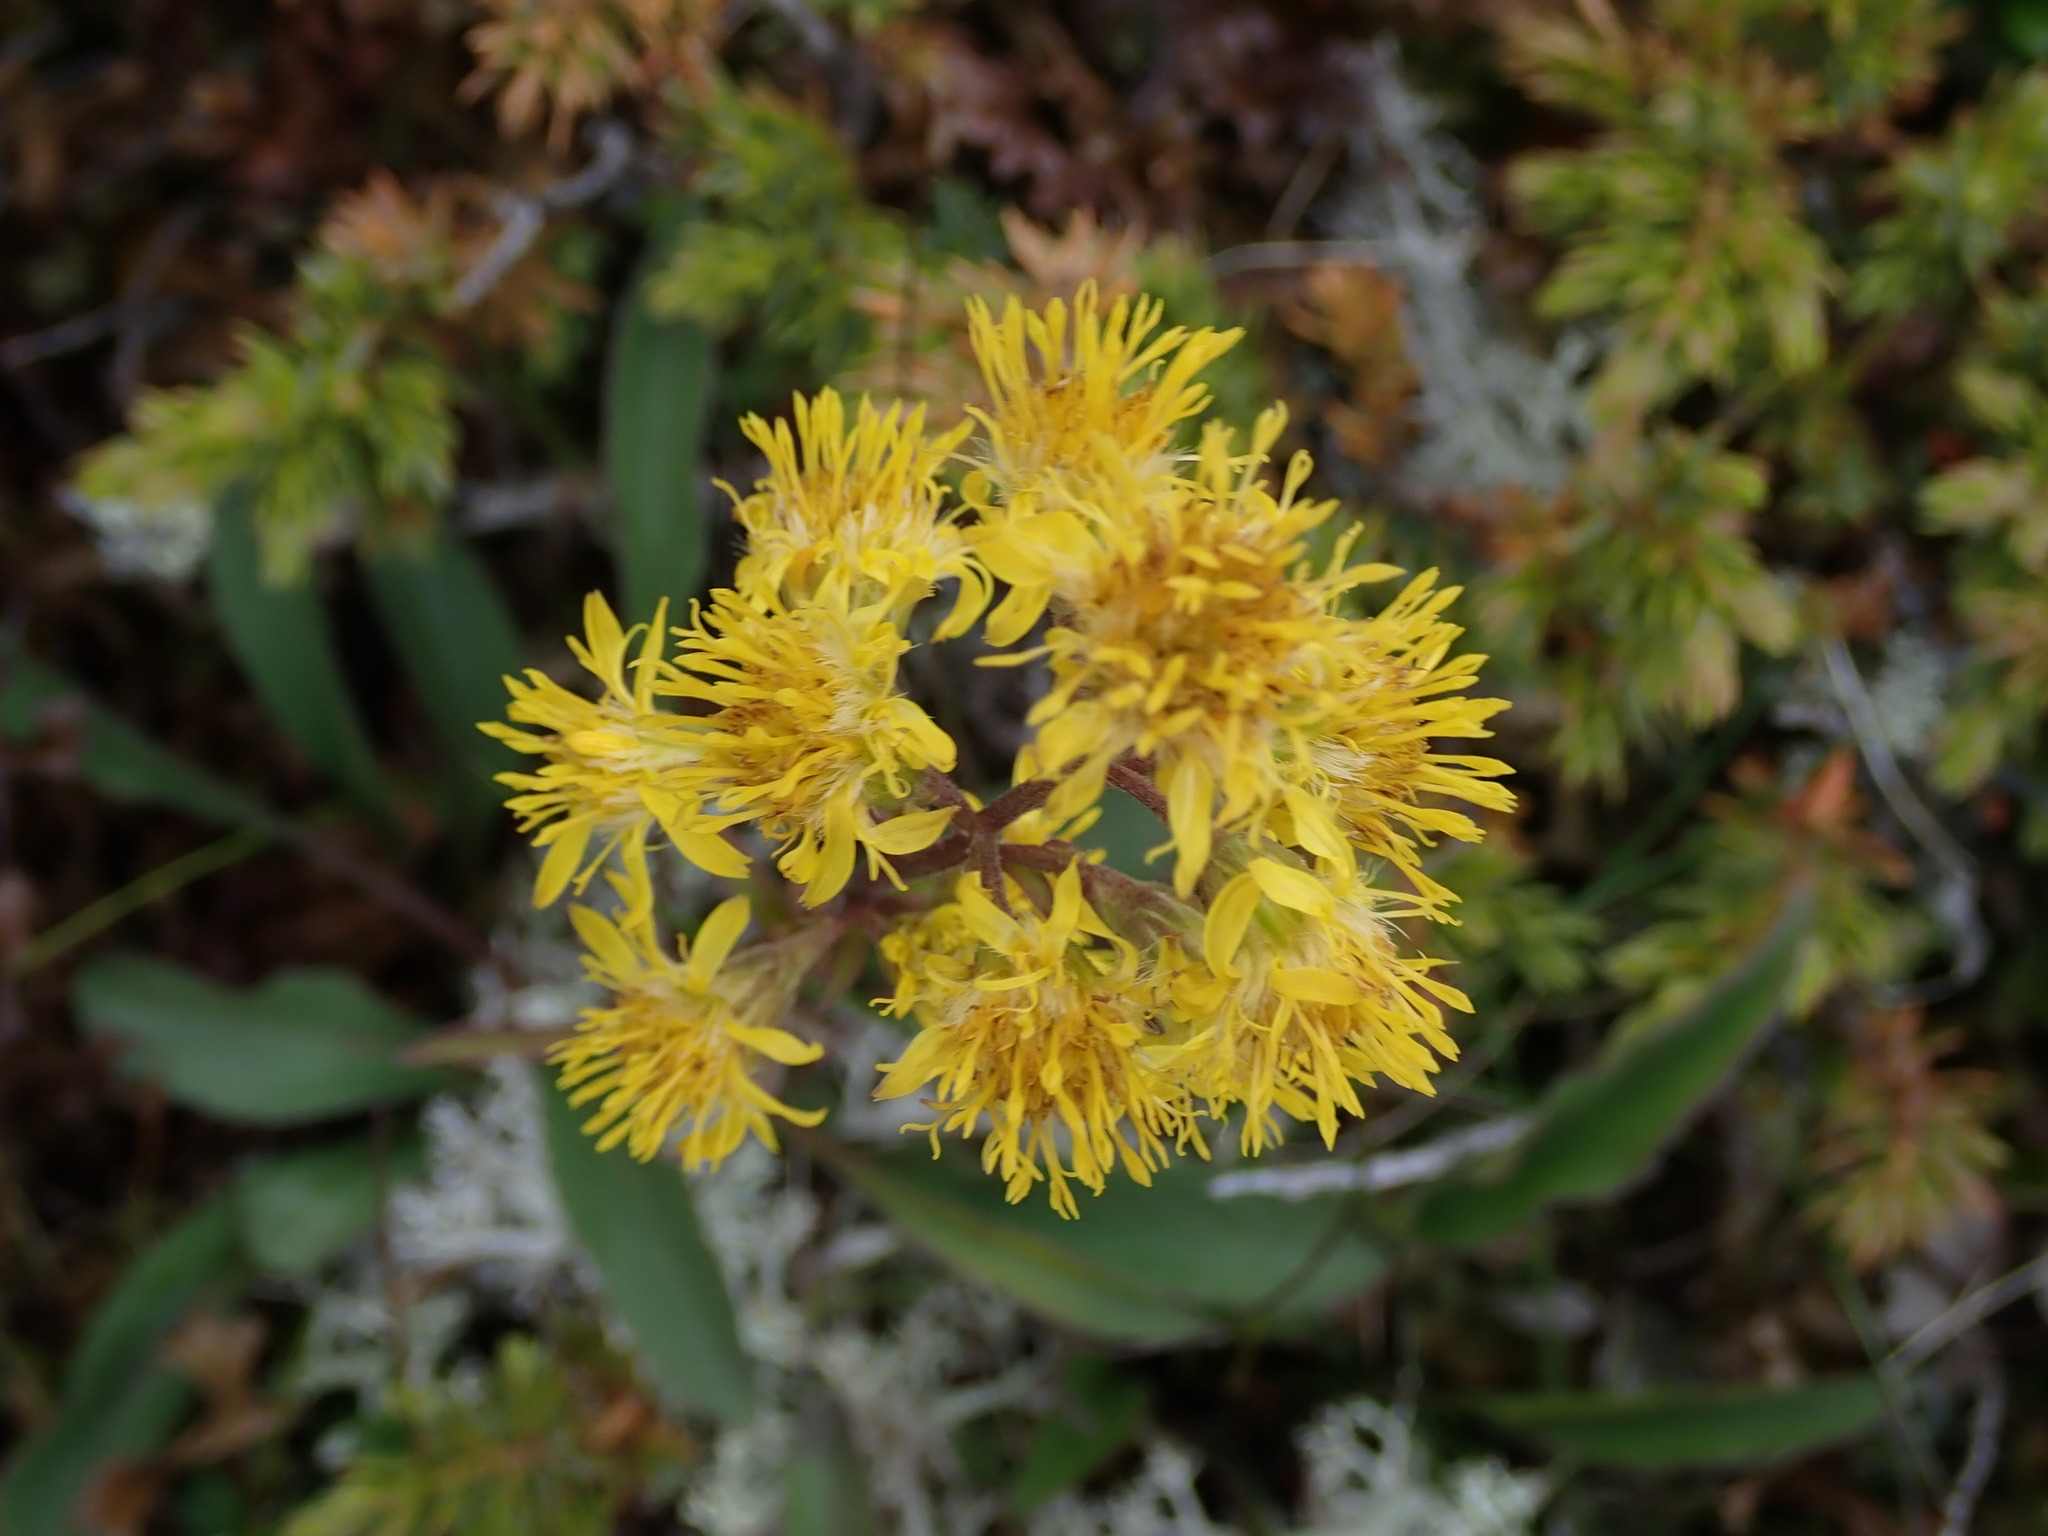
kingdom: Plantae
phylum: Tracheophyta
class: Magnoliopsida
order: Asterales
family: Asteraceae
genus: Solidago
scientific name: Solidago virgaurea
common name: Goldenrod
